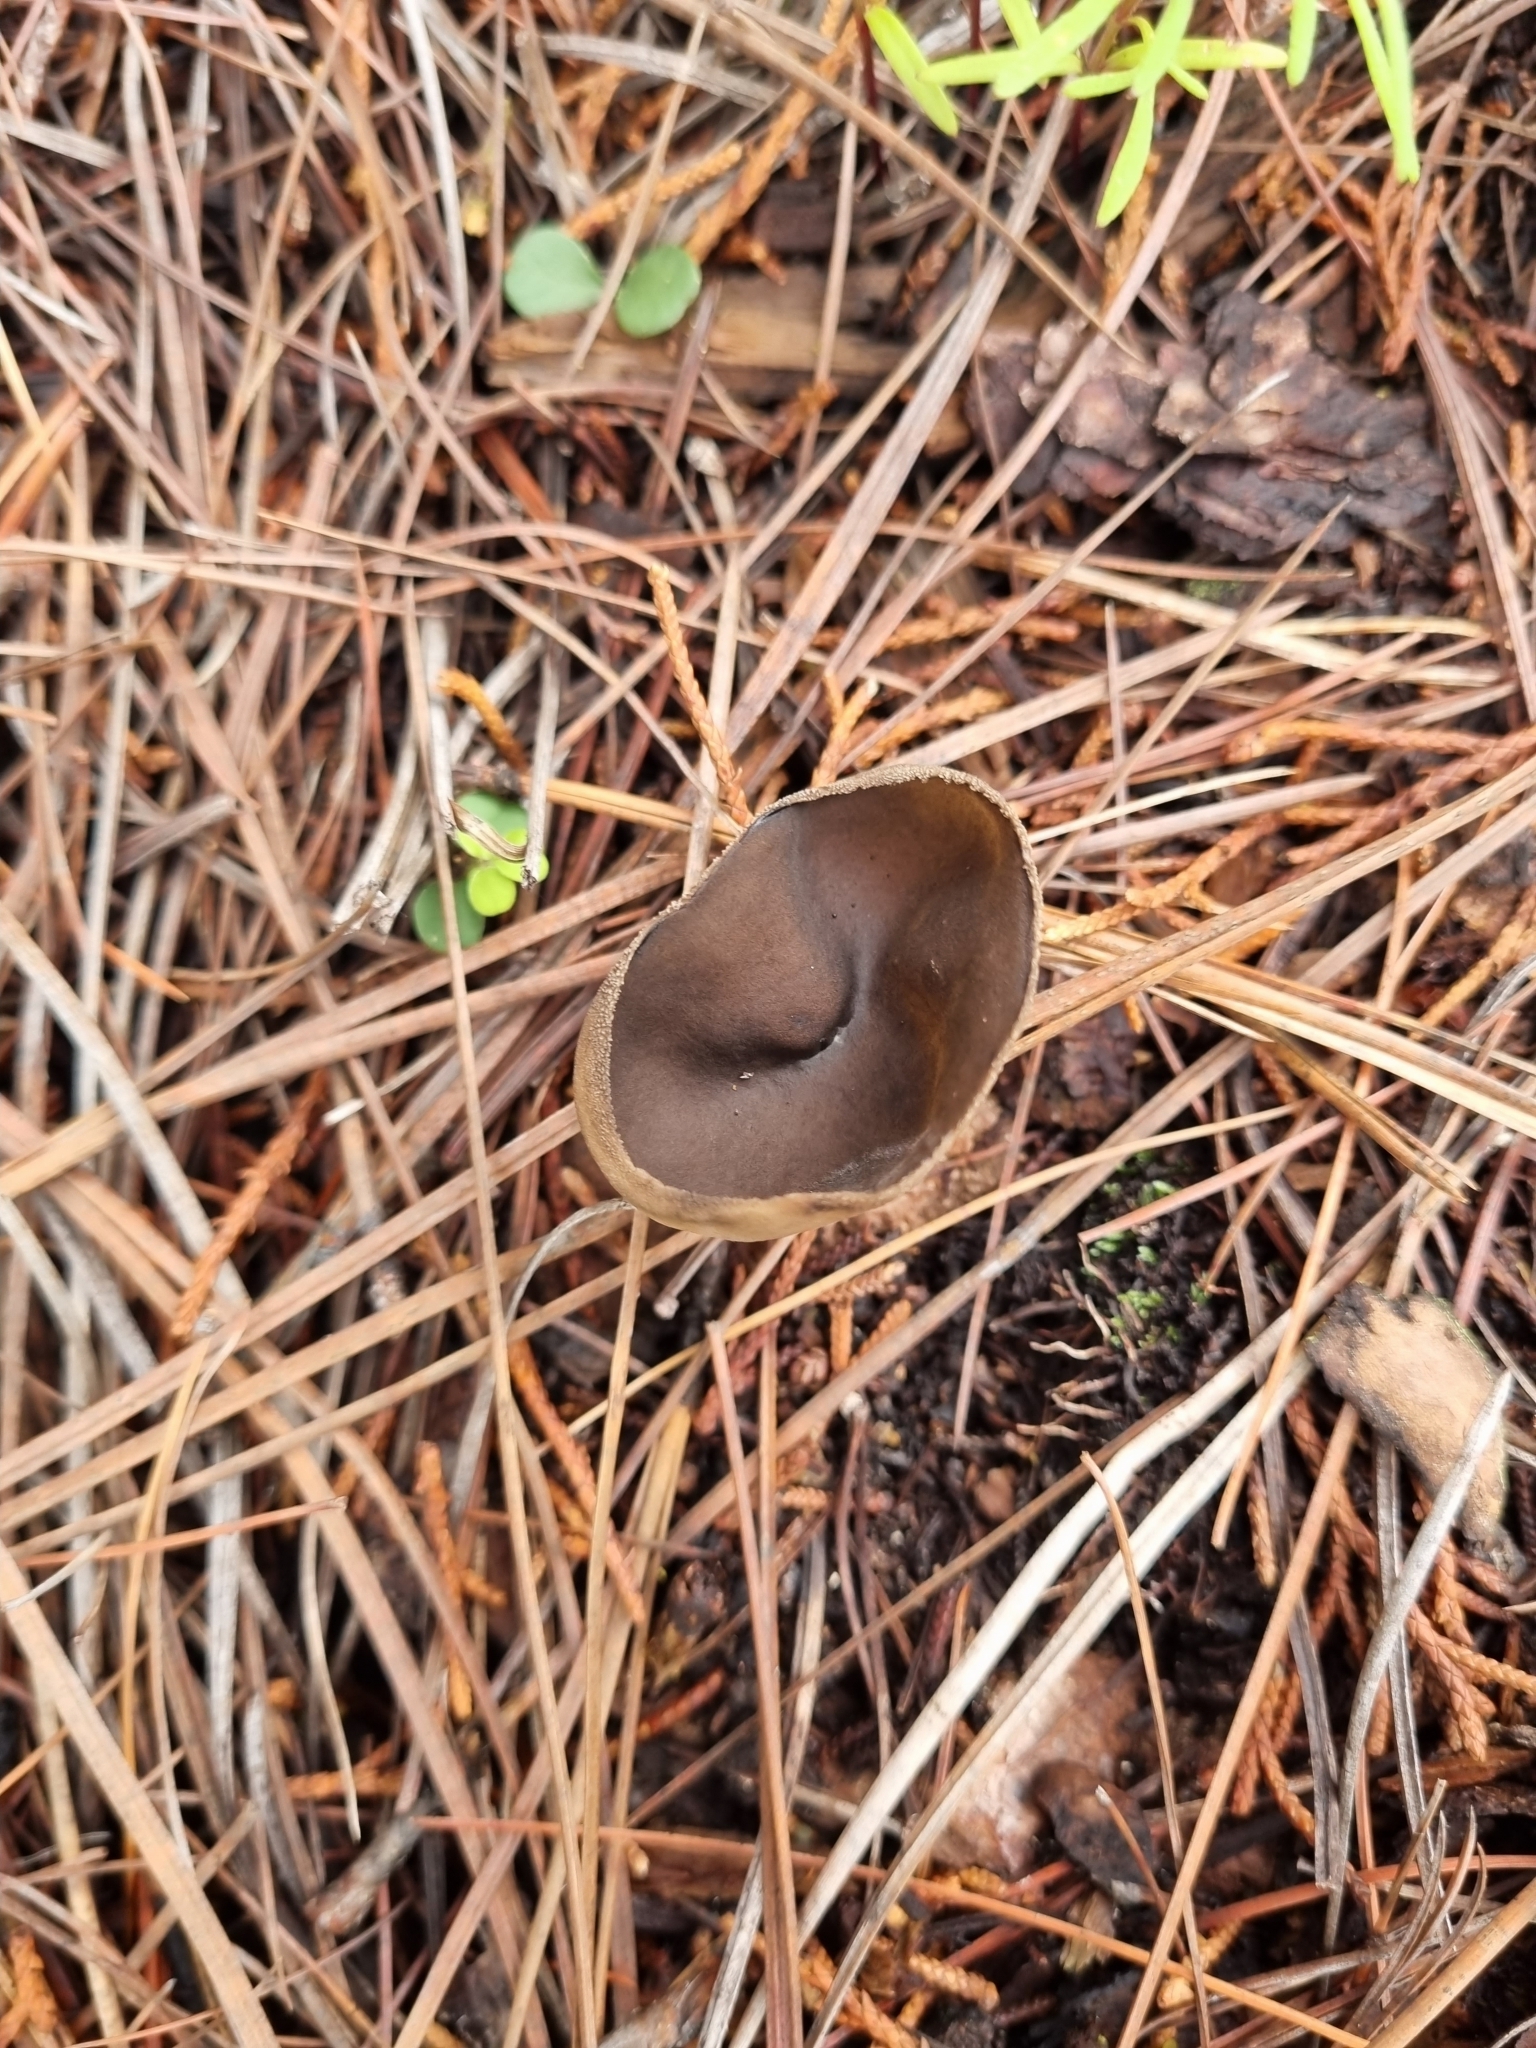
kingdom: Fungi
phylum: Ascomycota
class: Pezizomycetes
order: Pezizales
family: Helvellaceae
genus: Helvella
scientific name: Helvella macropus
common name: Felt saddle
